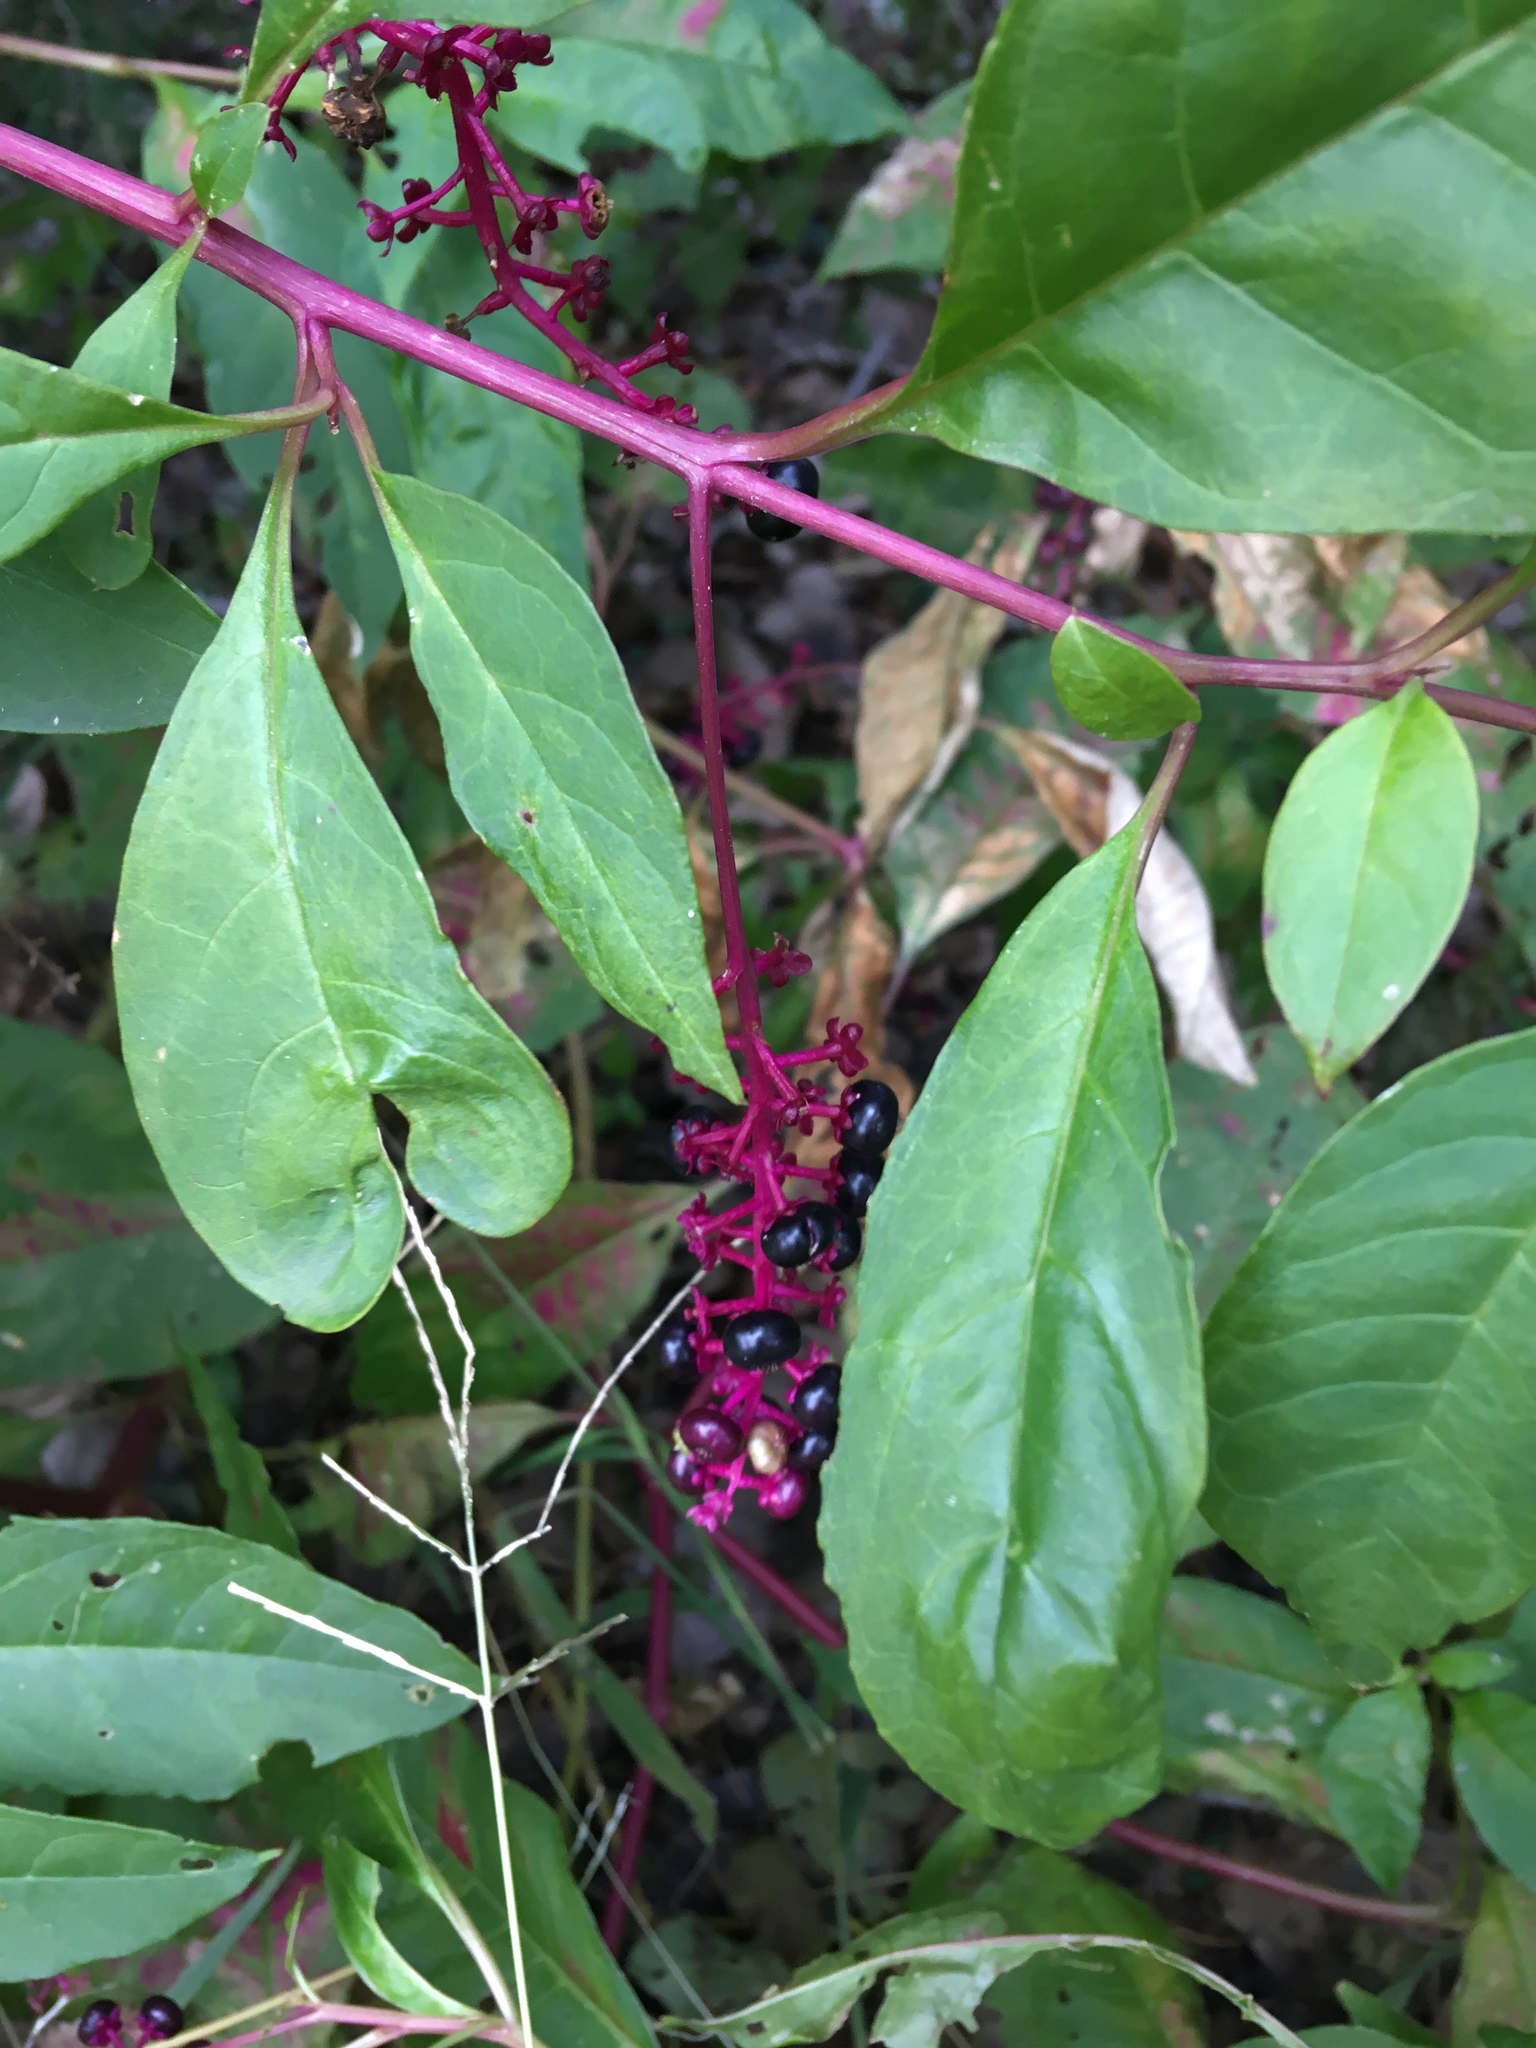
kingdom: Plantae
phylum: Tracheophyta
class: Magnoliopsida
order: Caryophyllales
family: Phytolaccaceae
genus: Phytolacca
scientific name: Phytolacca americana
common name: American pokeweed
